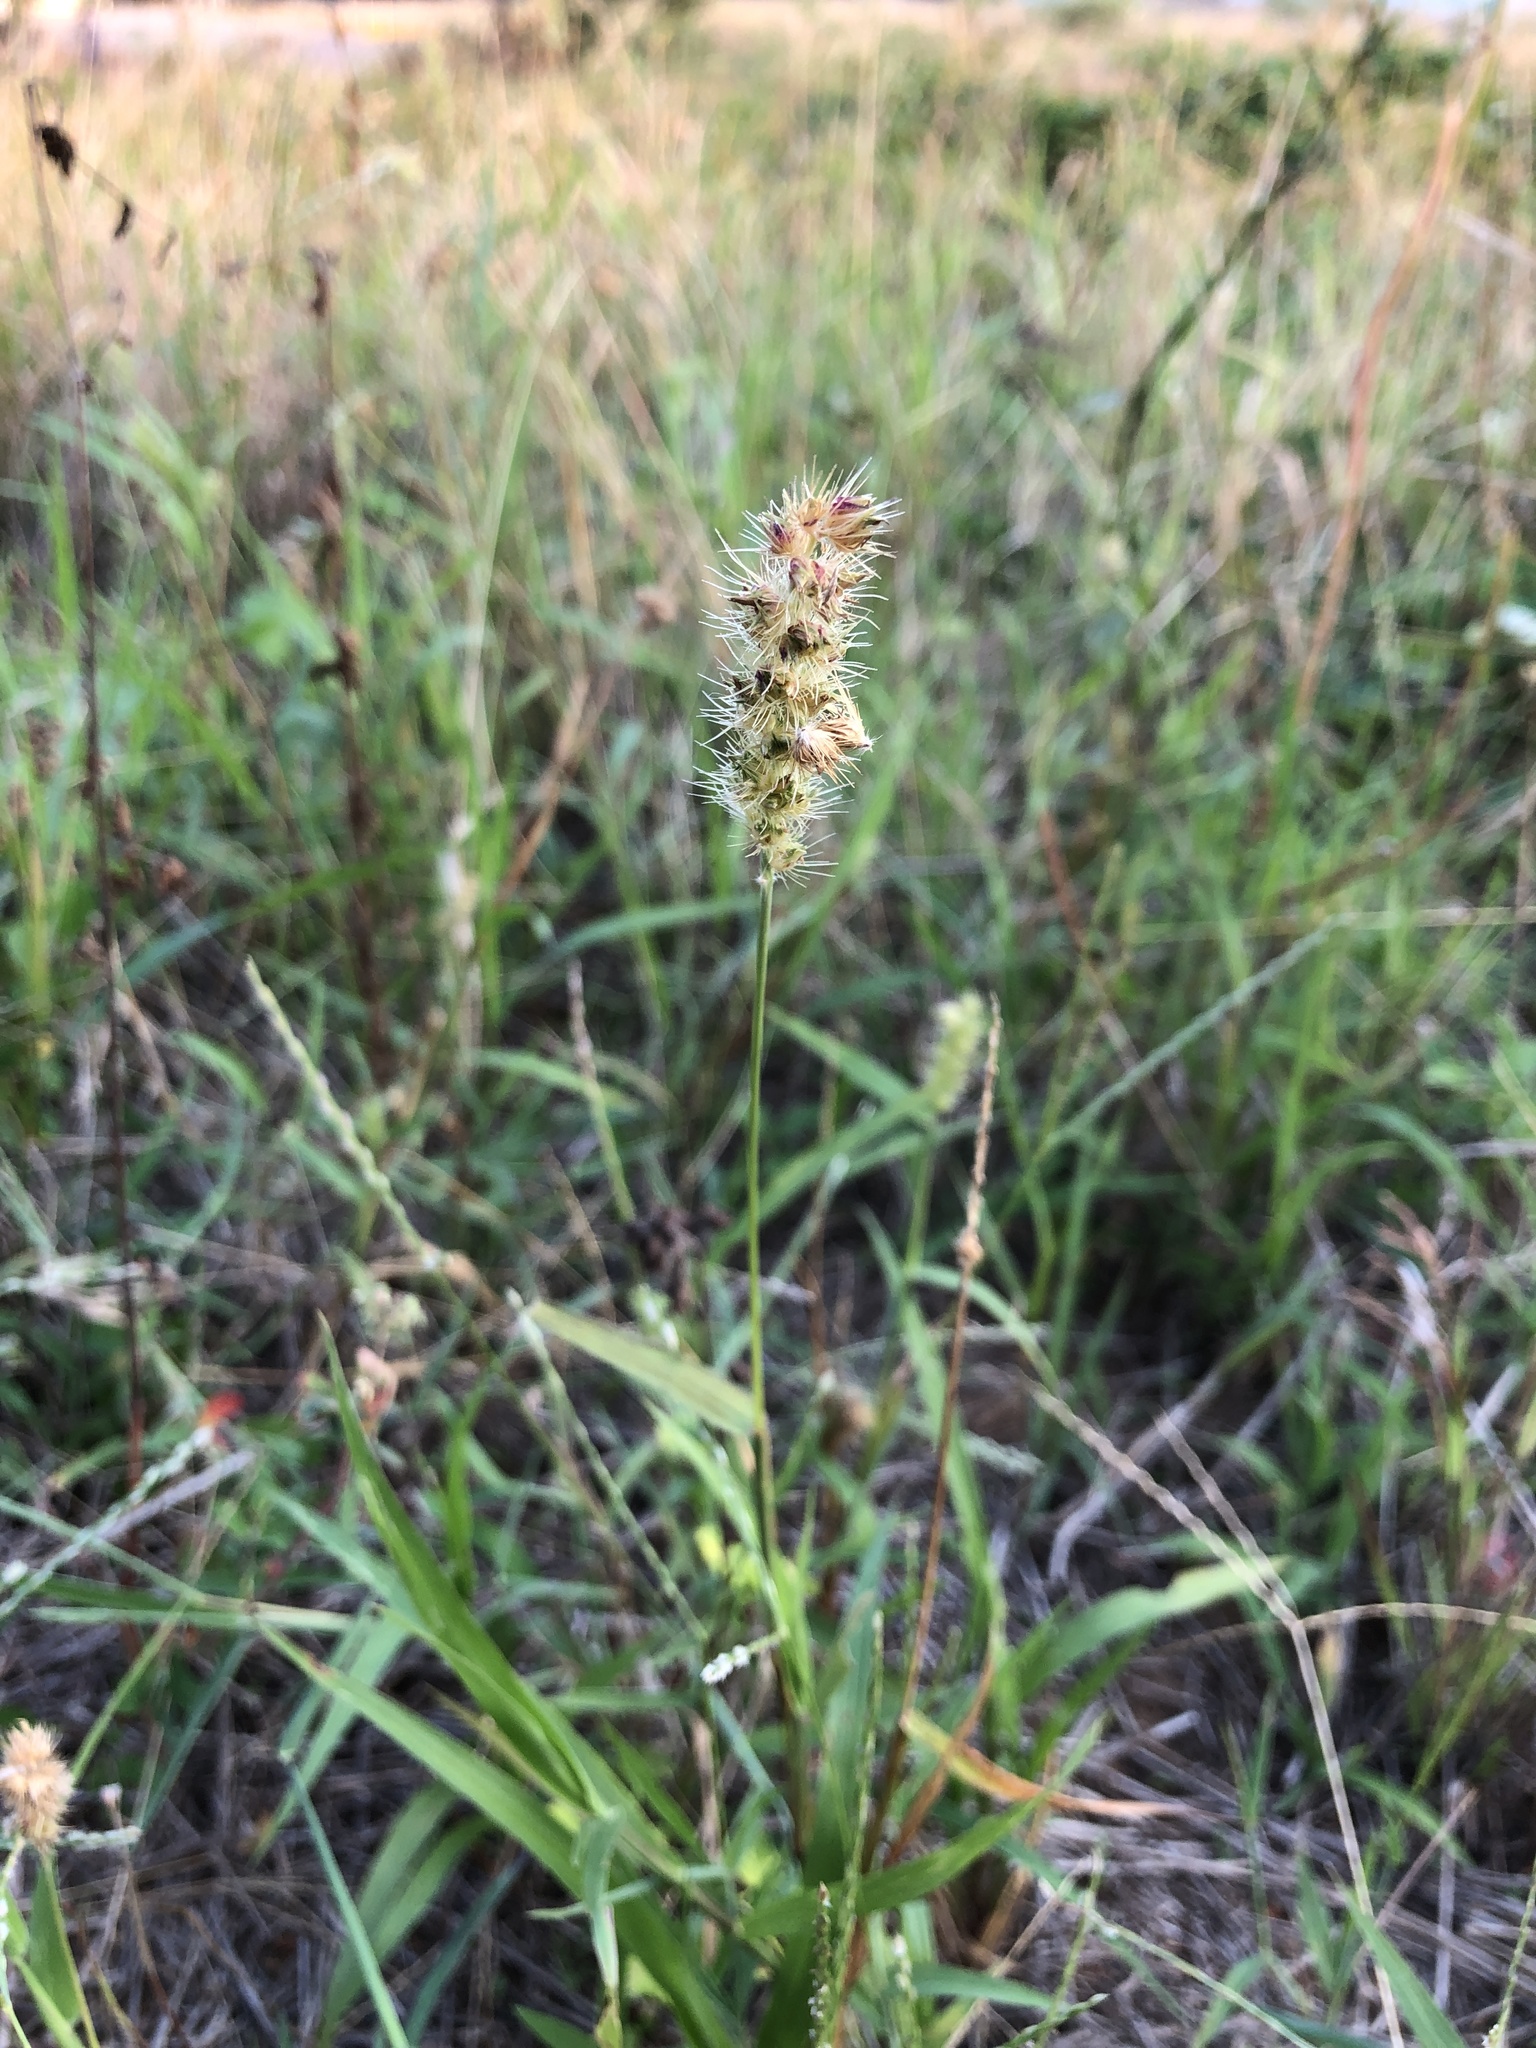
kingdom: Plantae
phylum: Tracheophyta
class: Liliopsida
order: Poales
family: Poaceae
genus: Cenchrus
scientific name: Cenchrus echinatus
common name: Southern sandbur
